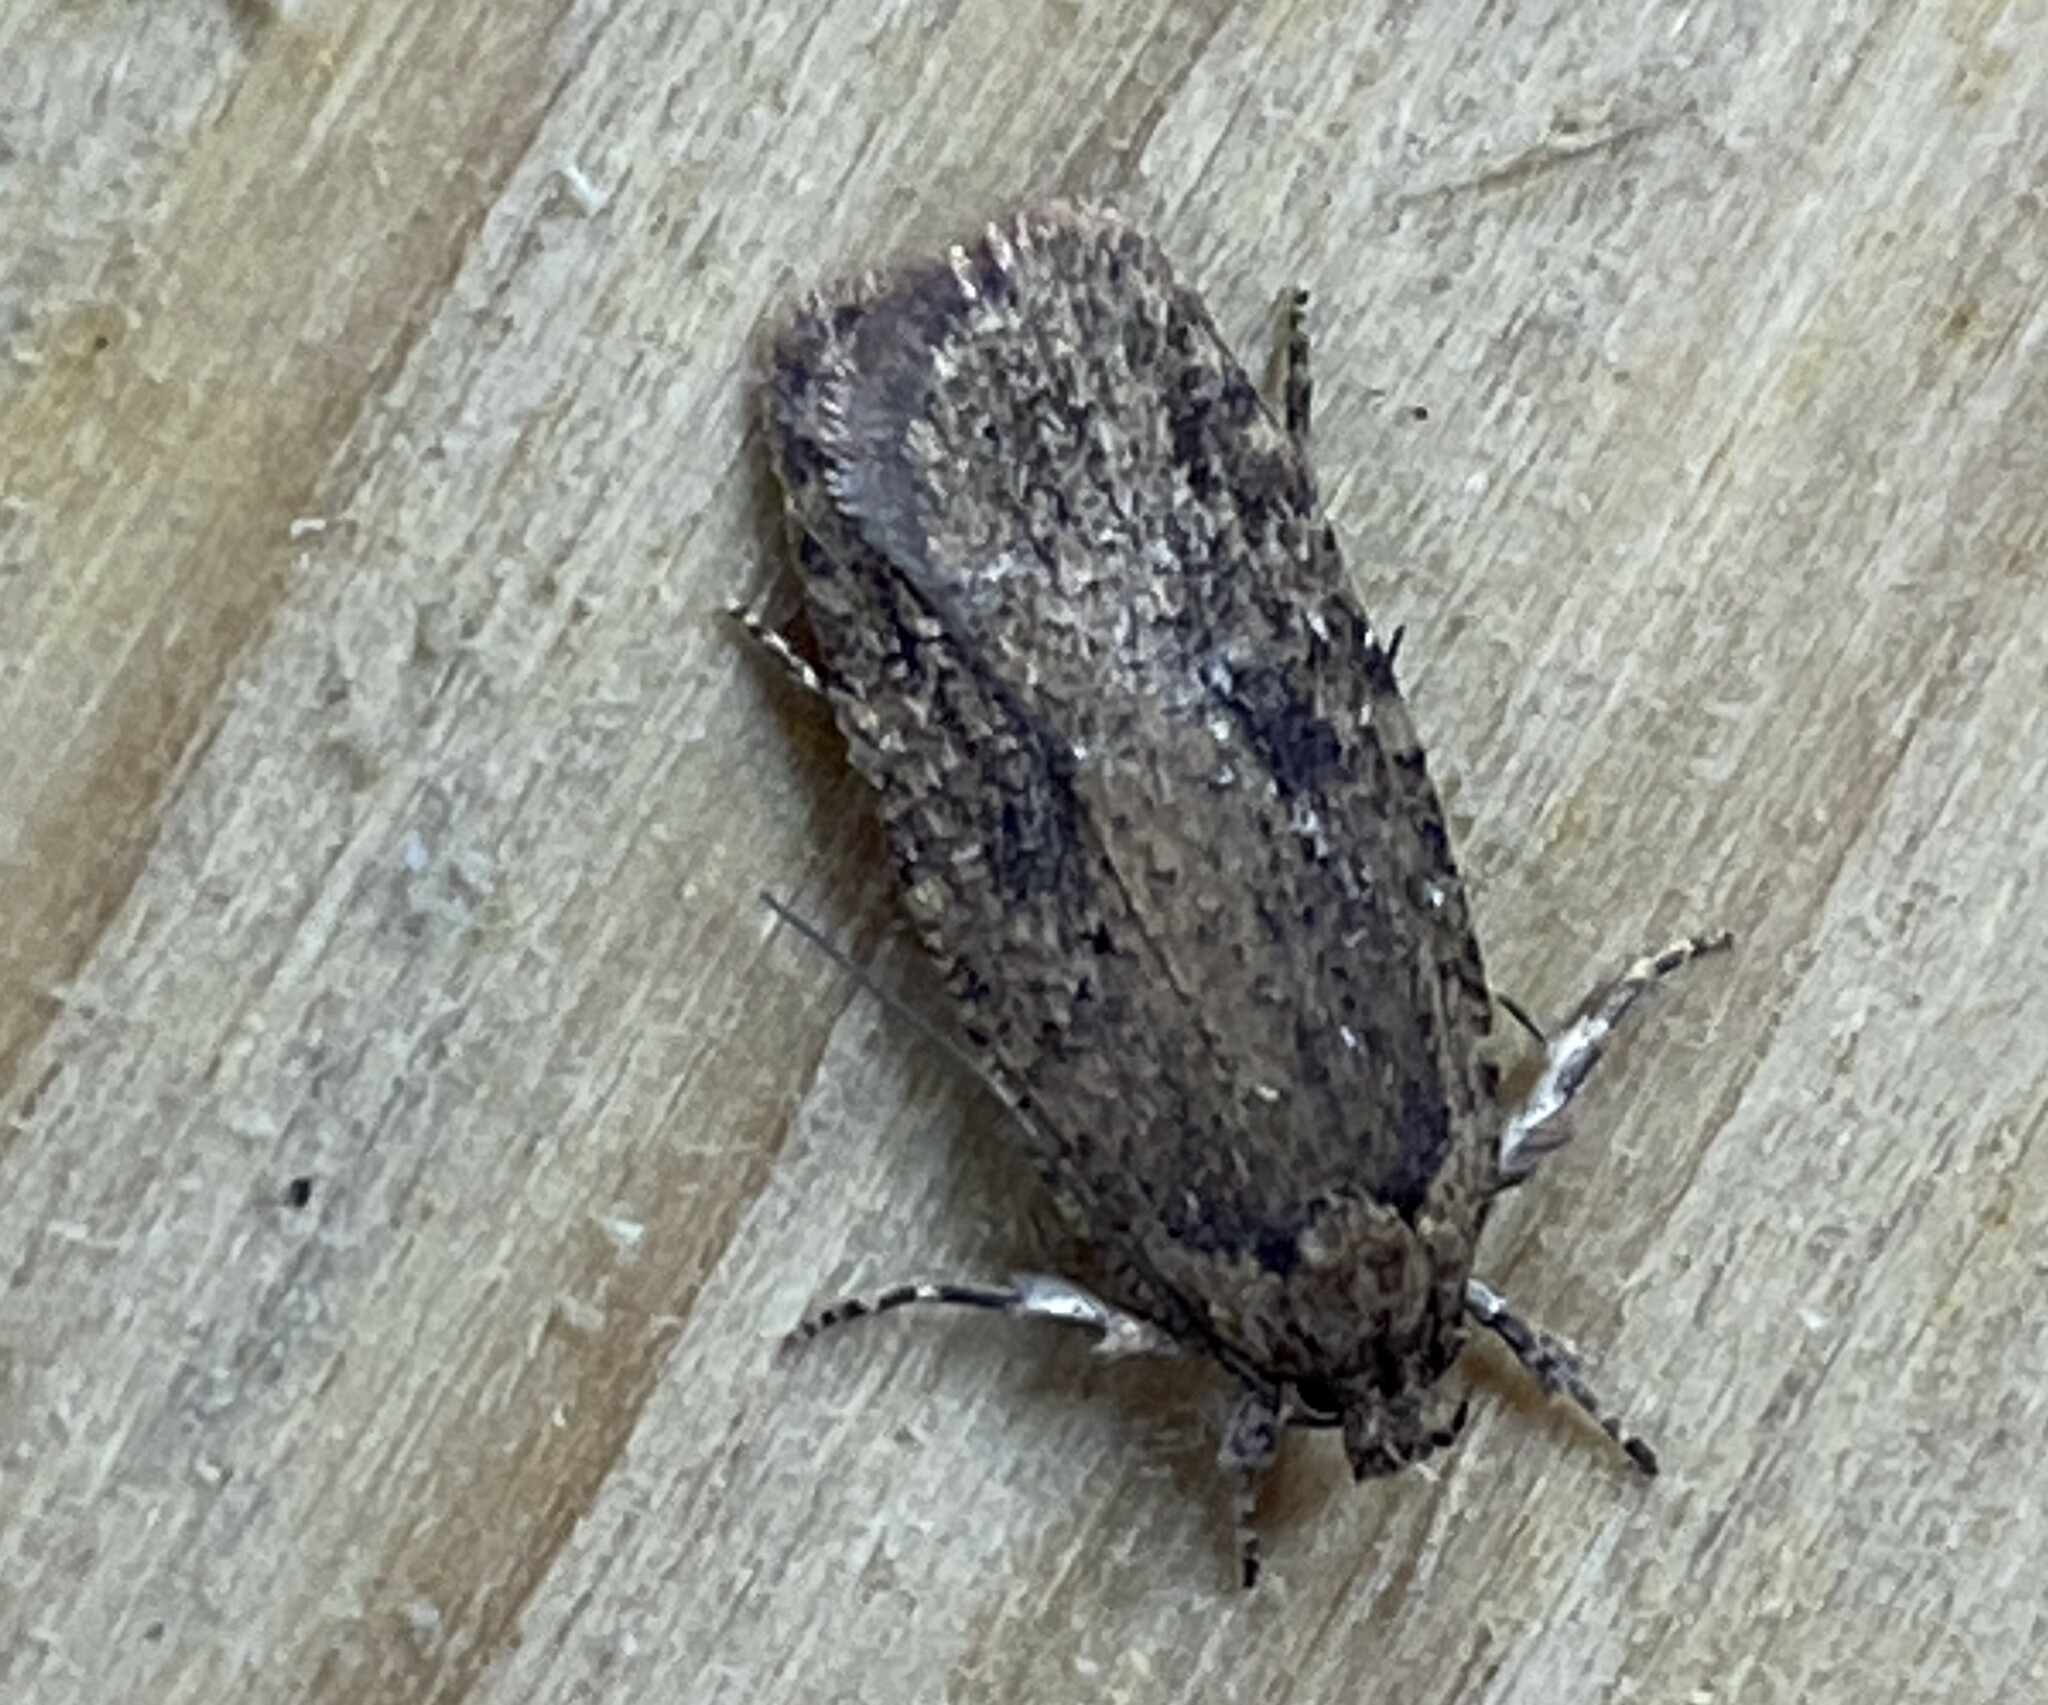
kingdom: Animalia
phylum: Arthropoda
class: Insecta
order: Lepidoptera
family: Depressariidae
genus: Agonopterix
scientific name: Agonopterix pulvipennella
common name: Goldenrod leafffolder
